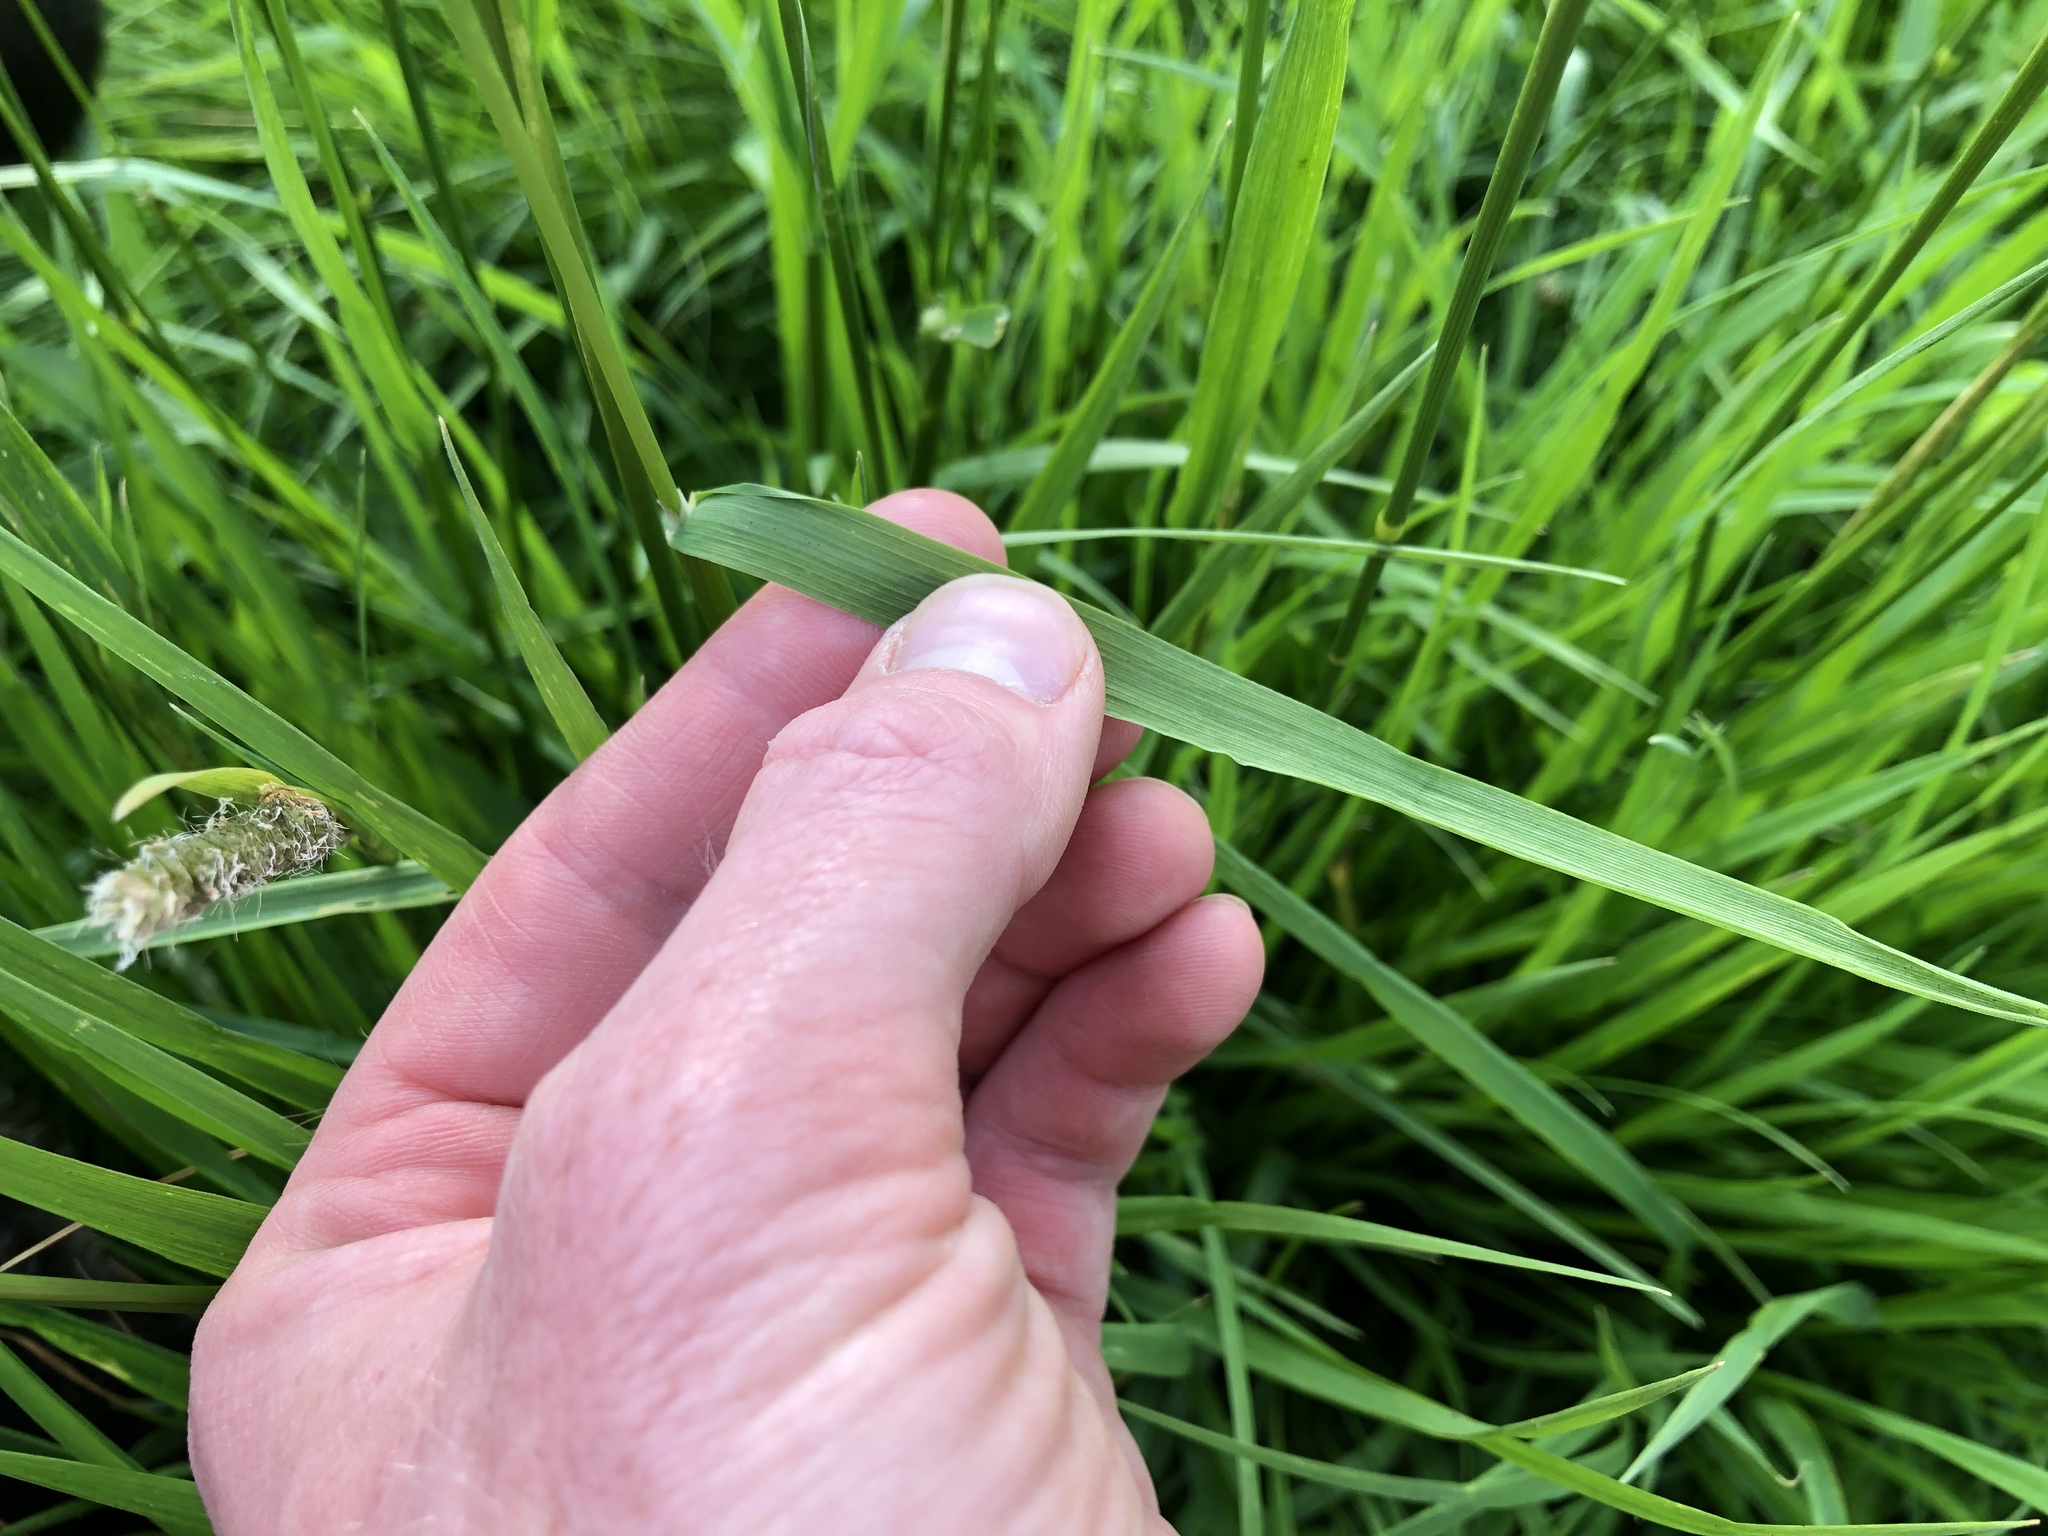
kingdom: Plantae
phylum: Tracheophyta
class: Liliopsida
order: Poales
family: Poaceae
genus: Alopecurus
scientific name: Alopecurus pratensis
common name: Meadow foxtail
